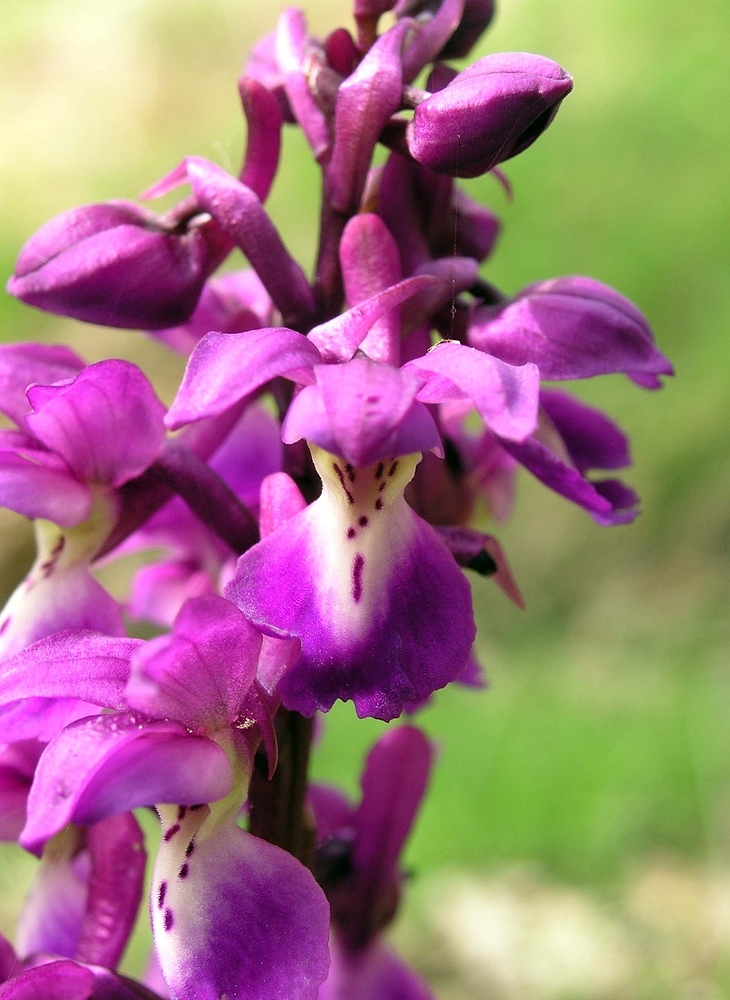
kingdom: Plantae
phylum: Tracheophyta
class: Liliopsida
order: Asparagales
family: Orchidaceae
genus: Orchis
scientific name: Orchis mascula
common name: Early-purple orchid
